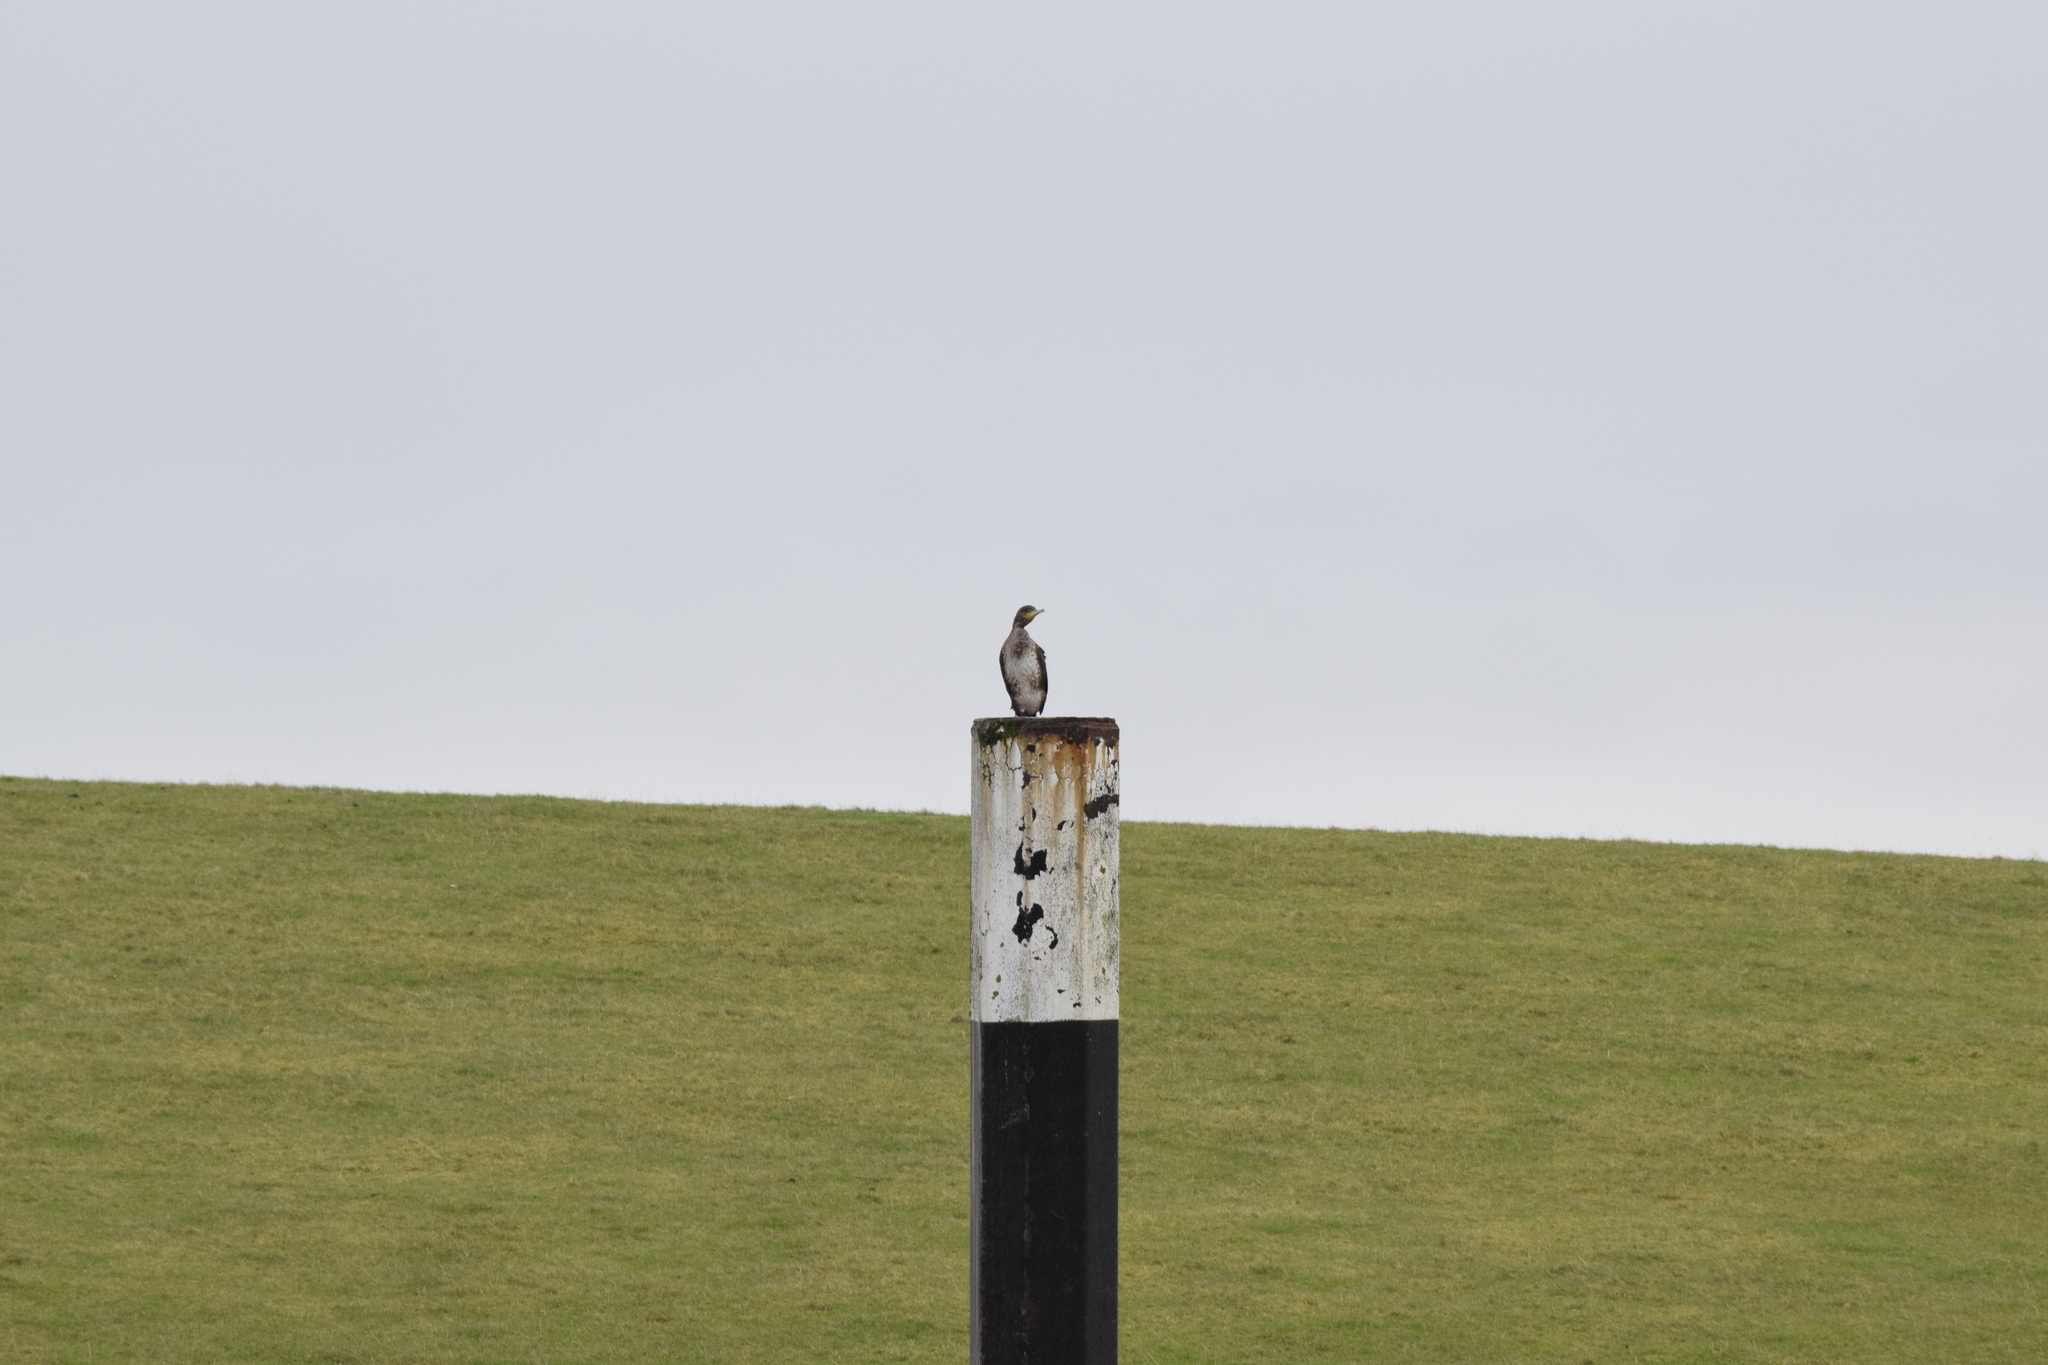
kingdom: Animalia
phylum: Chordata
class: Aves
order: Suliformes
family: Phalacrocoracidae
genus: Phalacrocorax
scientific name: Phalacrocorax carbo
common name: Great cormorant
